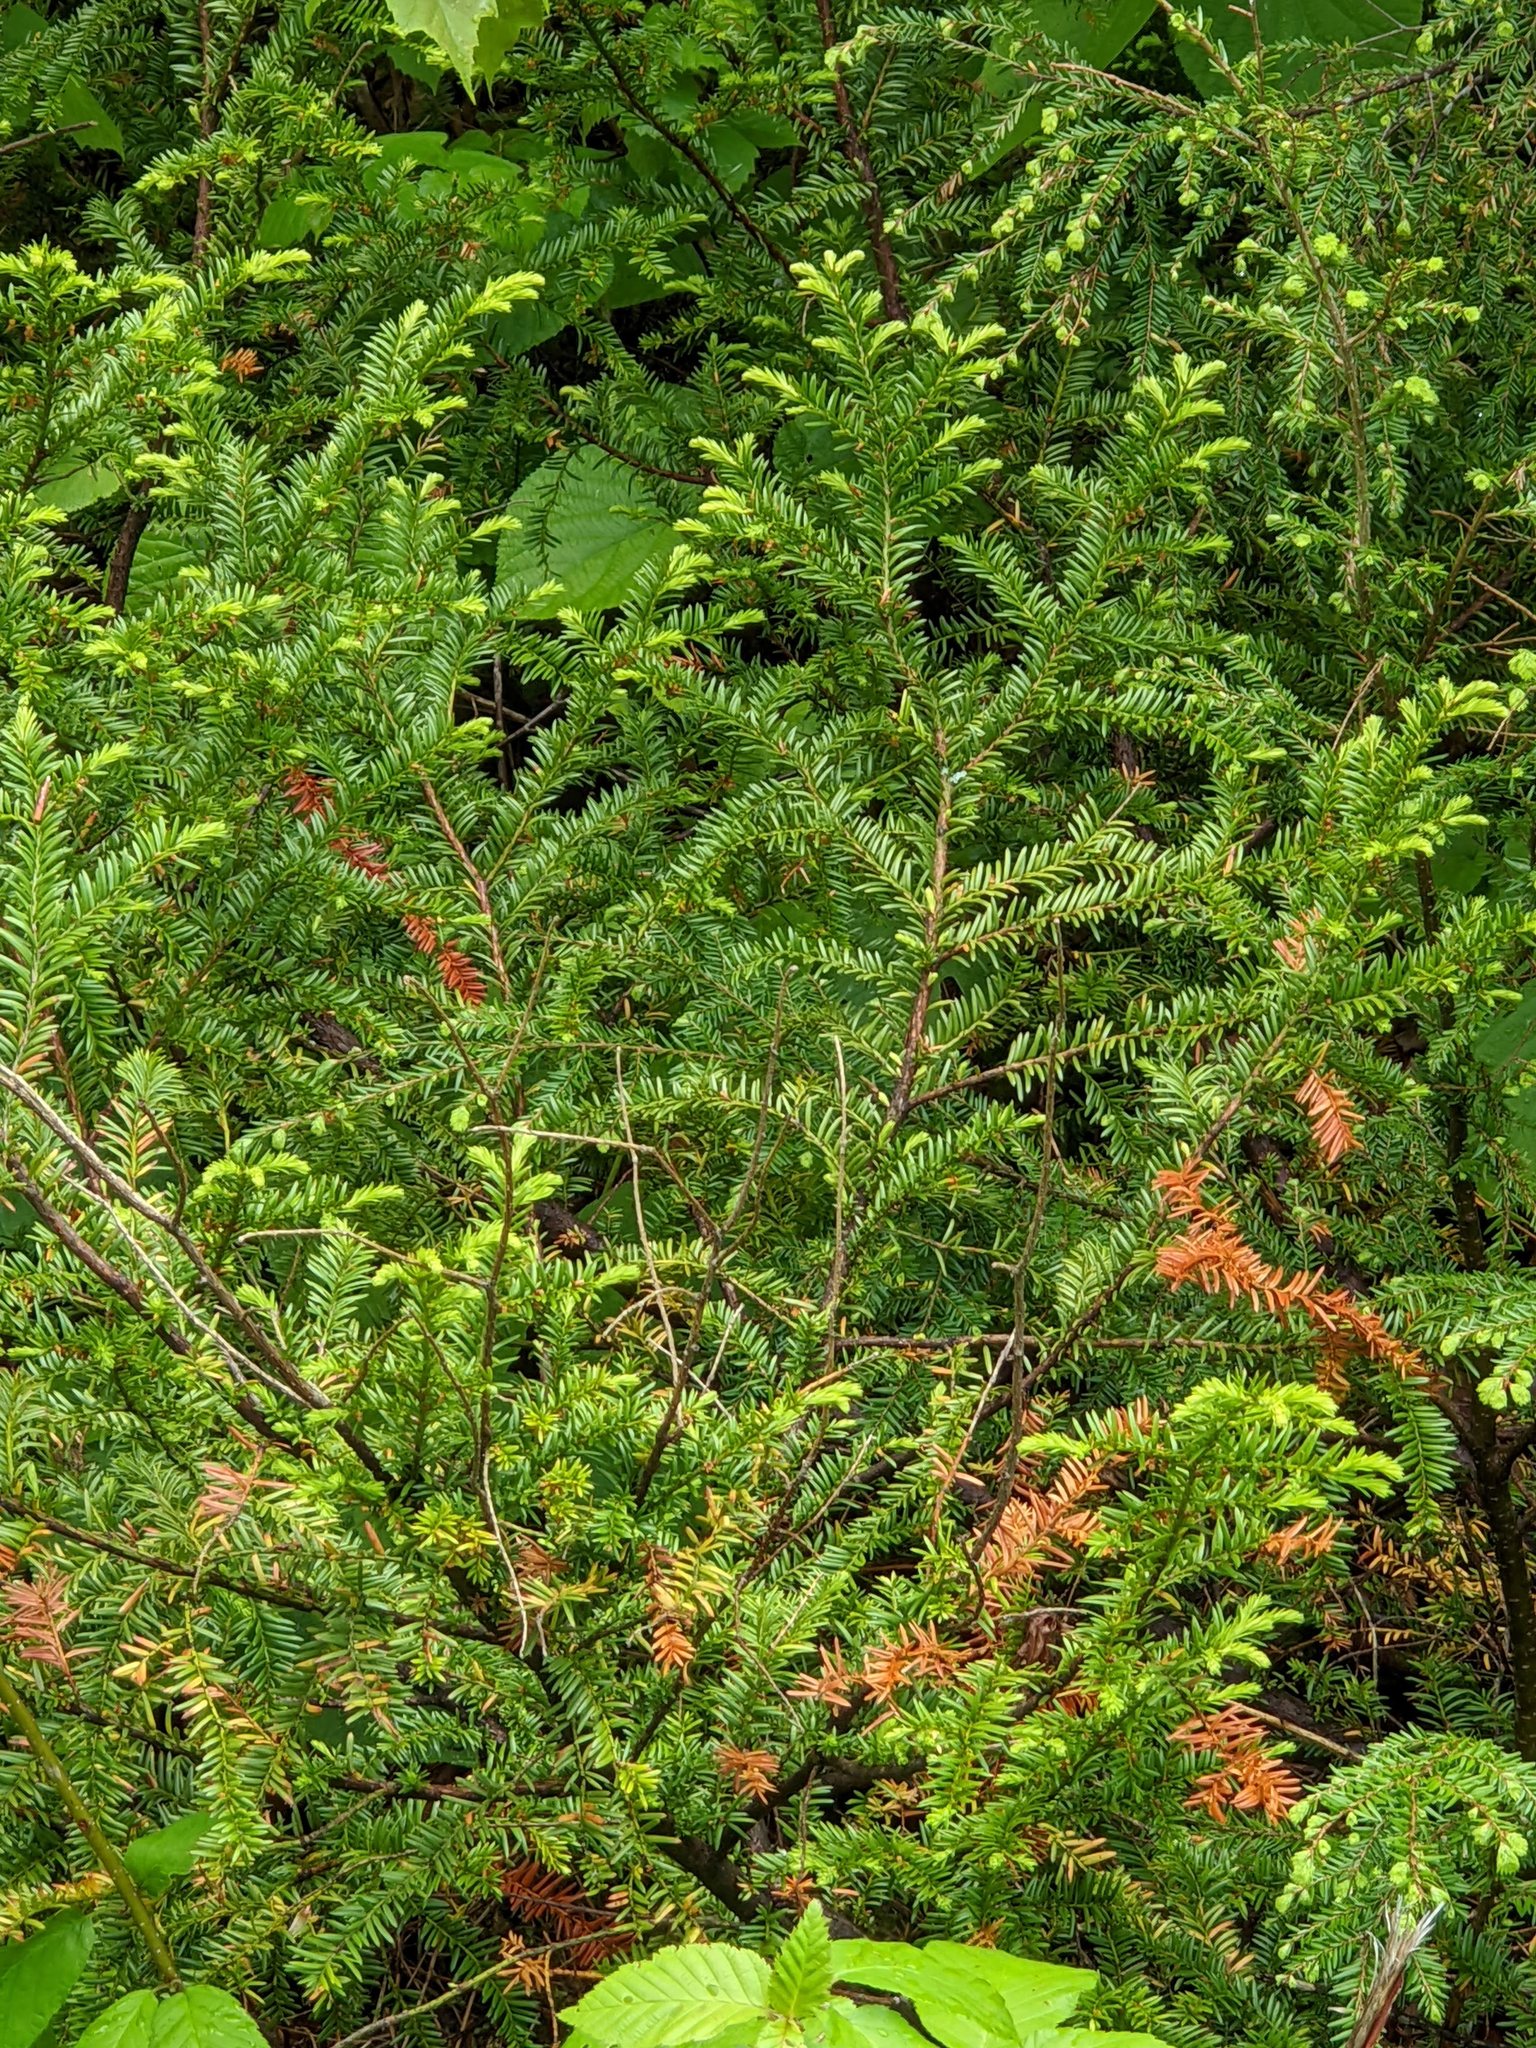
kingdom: Plantae
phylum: Tracheophyta
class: Pinopsida
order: Pinales
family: Taxaceae
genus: Taxus
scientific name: Taxus canadensis
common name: American yew
